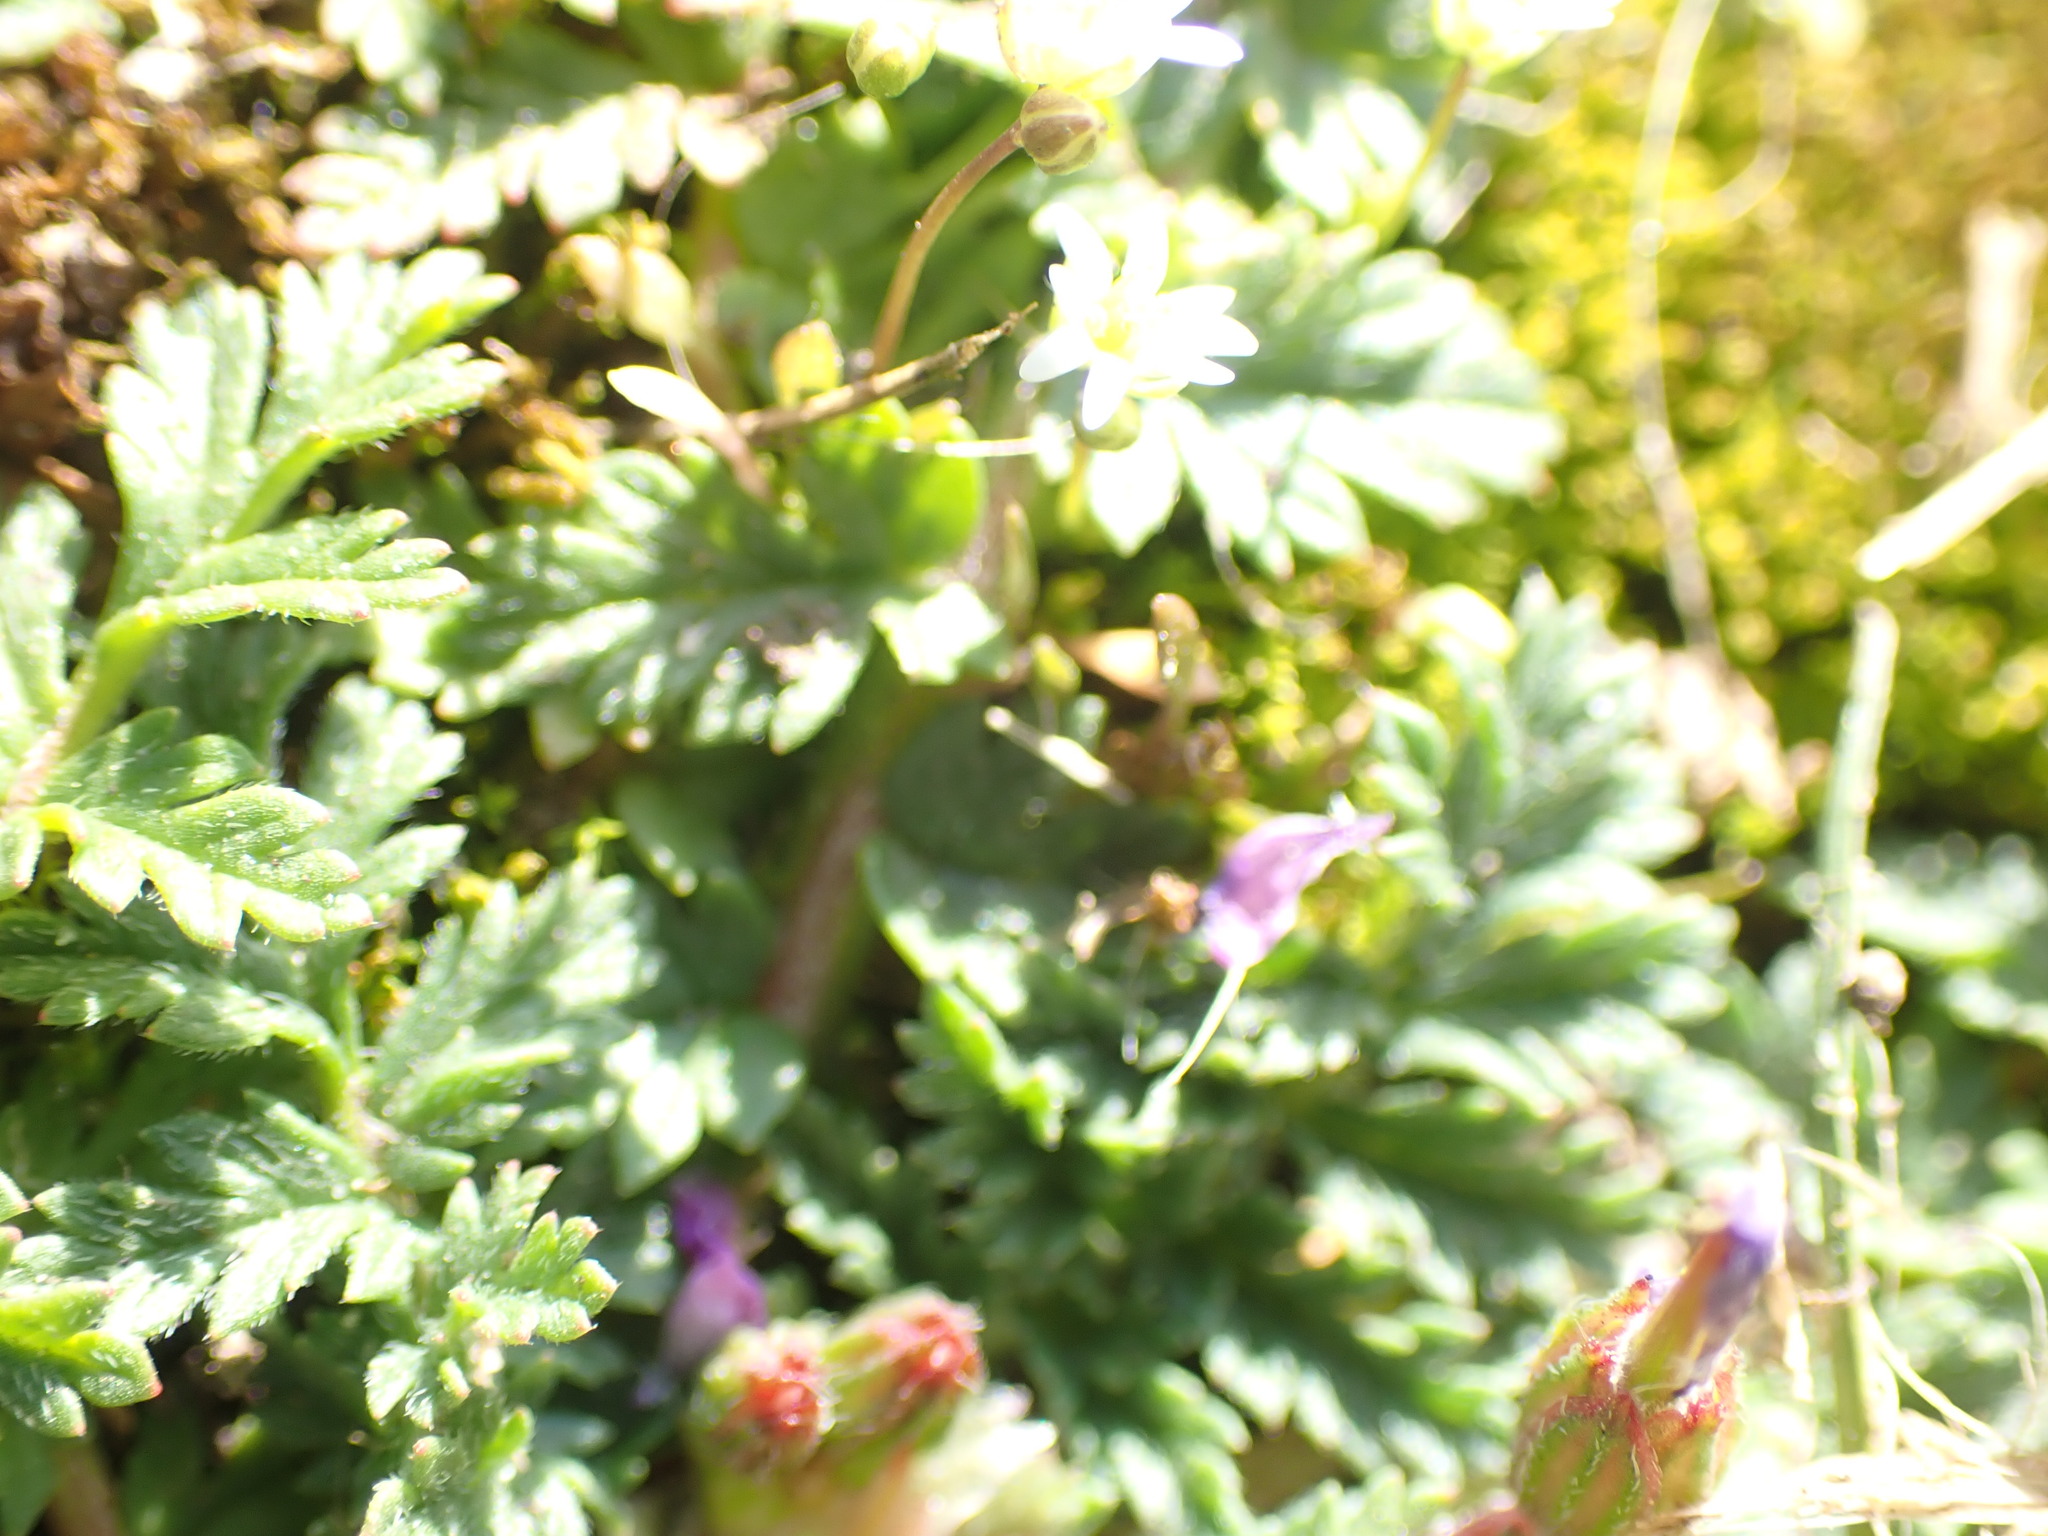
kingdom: Plantae
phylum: Tracheophyta
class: Magnoliopsida
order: Geraniales
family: Geraniaceae
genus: Erodium
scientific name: Erodium cicutarium
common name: Common stork's-bill
